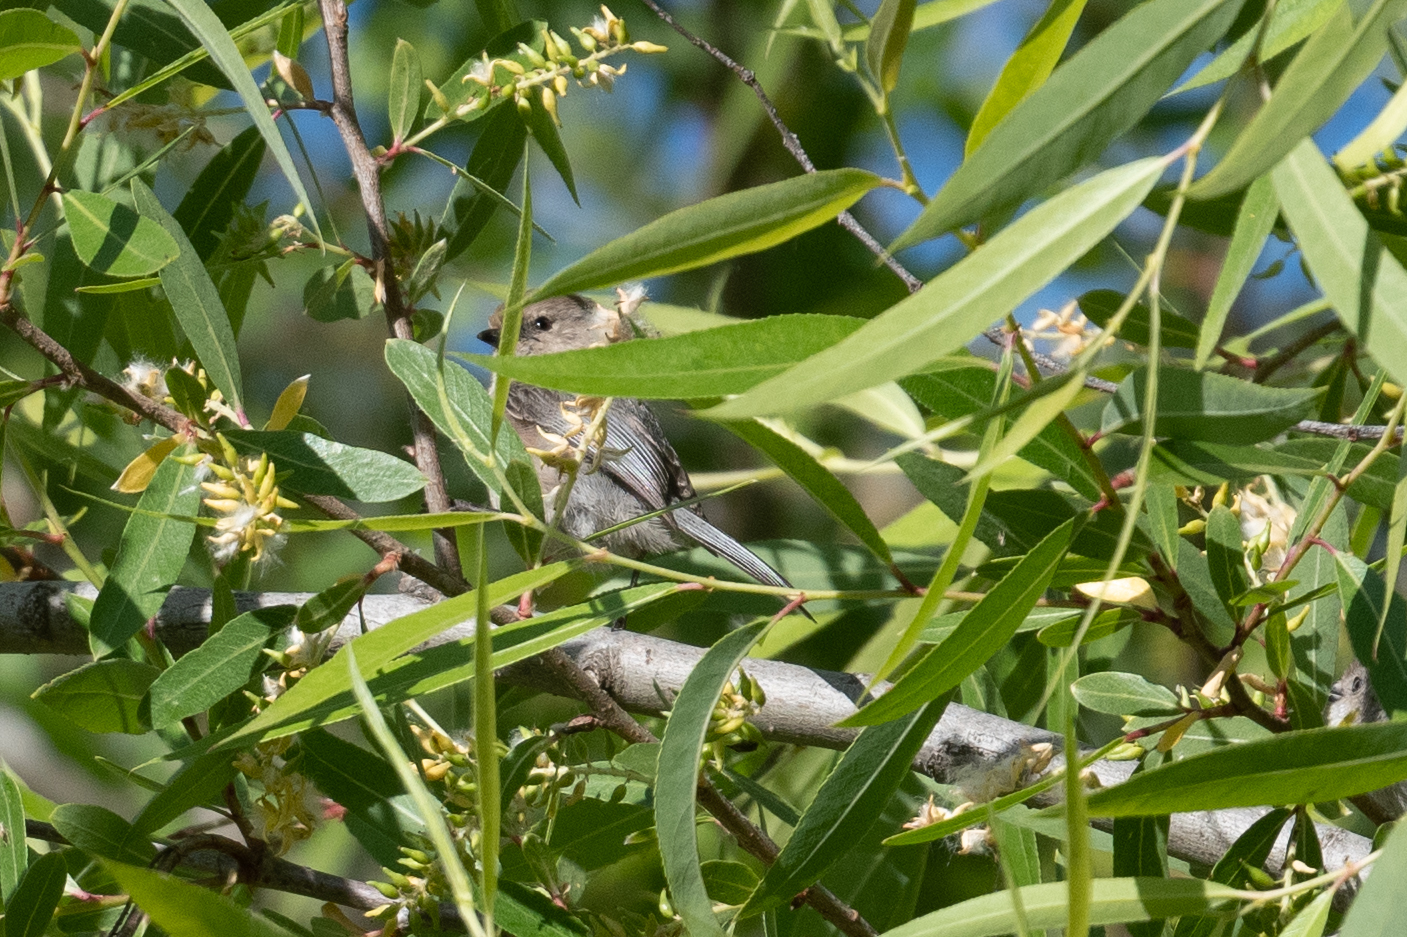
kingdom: Animalia
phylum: Chordata
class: Aves
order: Passeriformes
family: Aegithalidae
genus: Psaltriparus
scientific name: Psaltriparus minimus
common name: American bushtit
